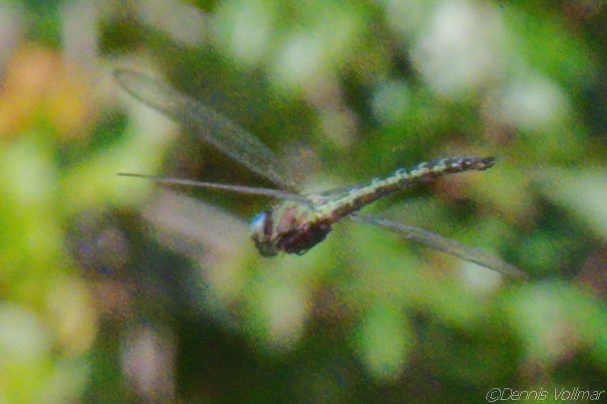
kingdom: Animalia
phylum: Arthropoda
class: Insecta
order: Odonata
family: Aeshnidae
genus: Nasiaeschna
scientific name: Nasiaeschna pentacantha
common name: Cyrano darner
